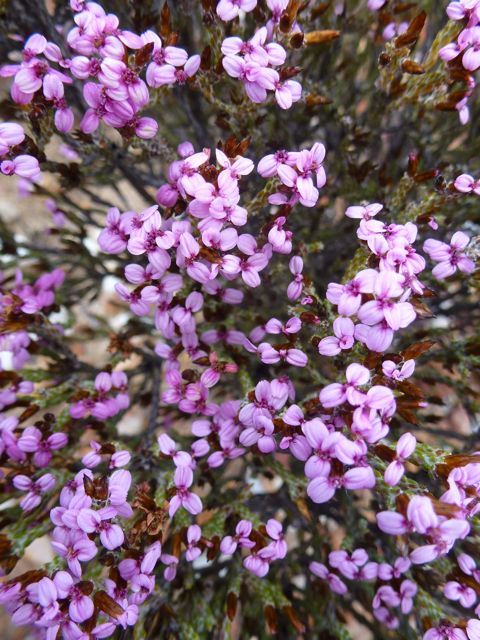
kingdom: Plantae
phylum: Tracheophyta
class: Magnoliopsida
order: Asterales
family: Asteraceae
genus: Disparago
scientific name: Disparago kolbei
